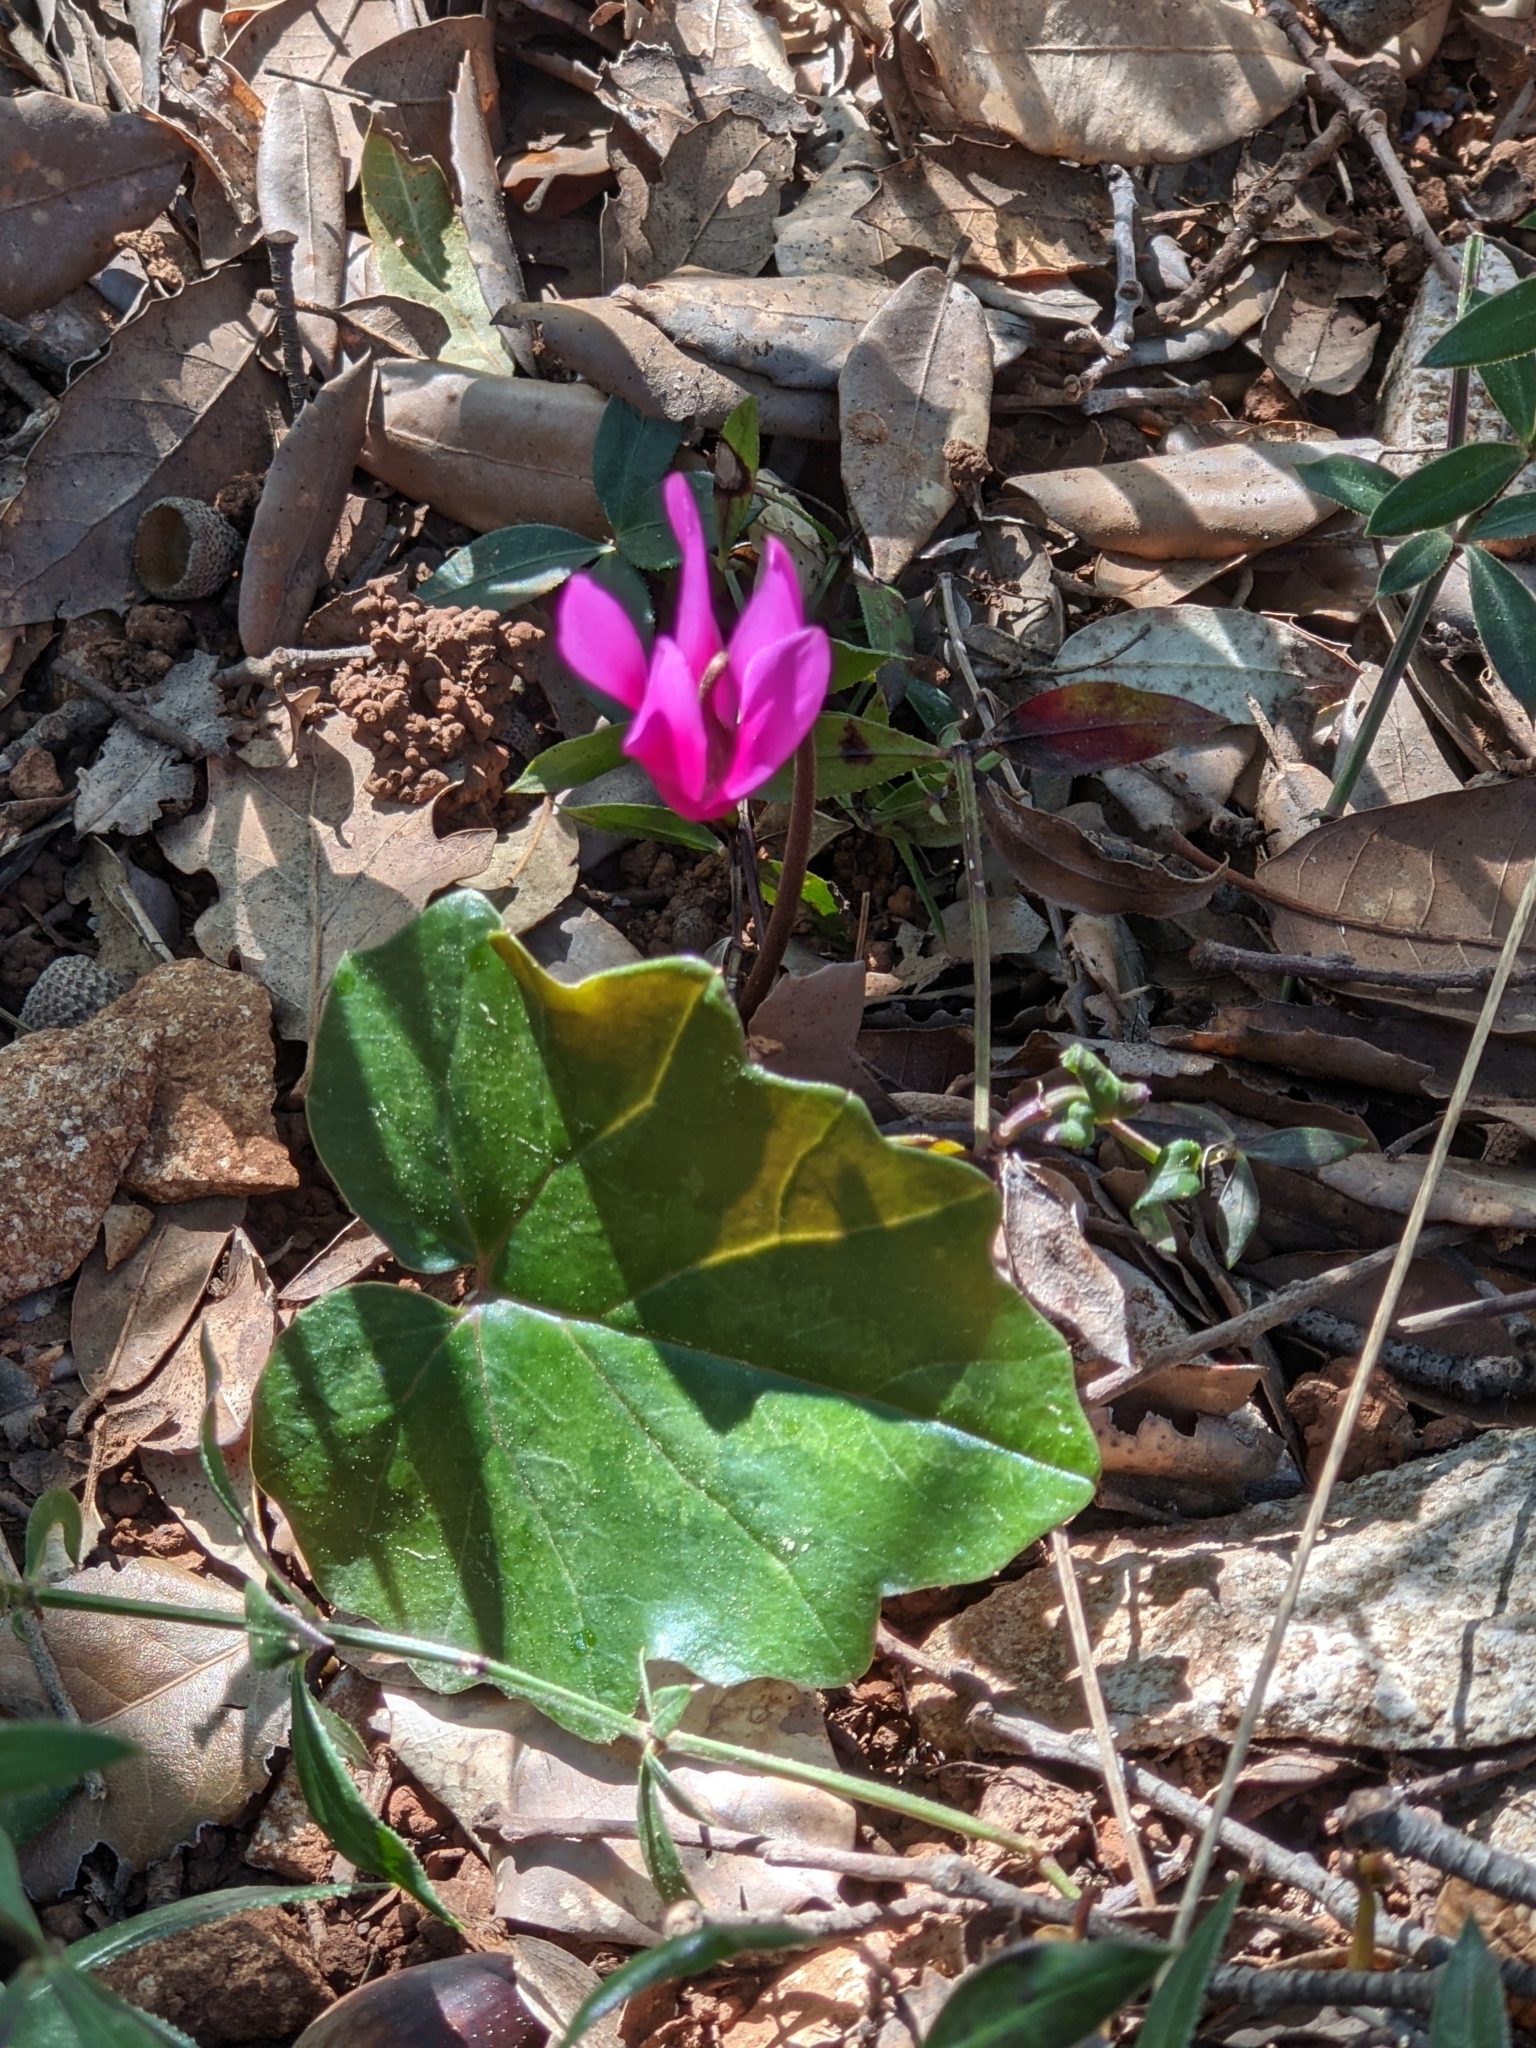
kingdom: Plantae
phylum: Tracheophyta
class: Magnoliopsida
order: Ericales
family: Primulaceae
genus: Cyclamen
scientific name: Cyclamen repandum
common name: Spring sowbread
